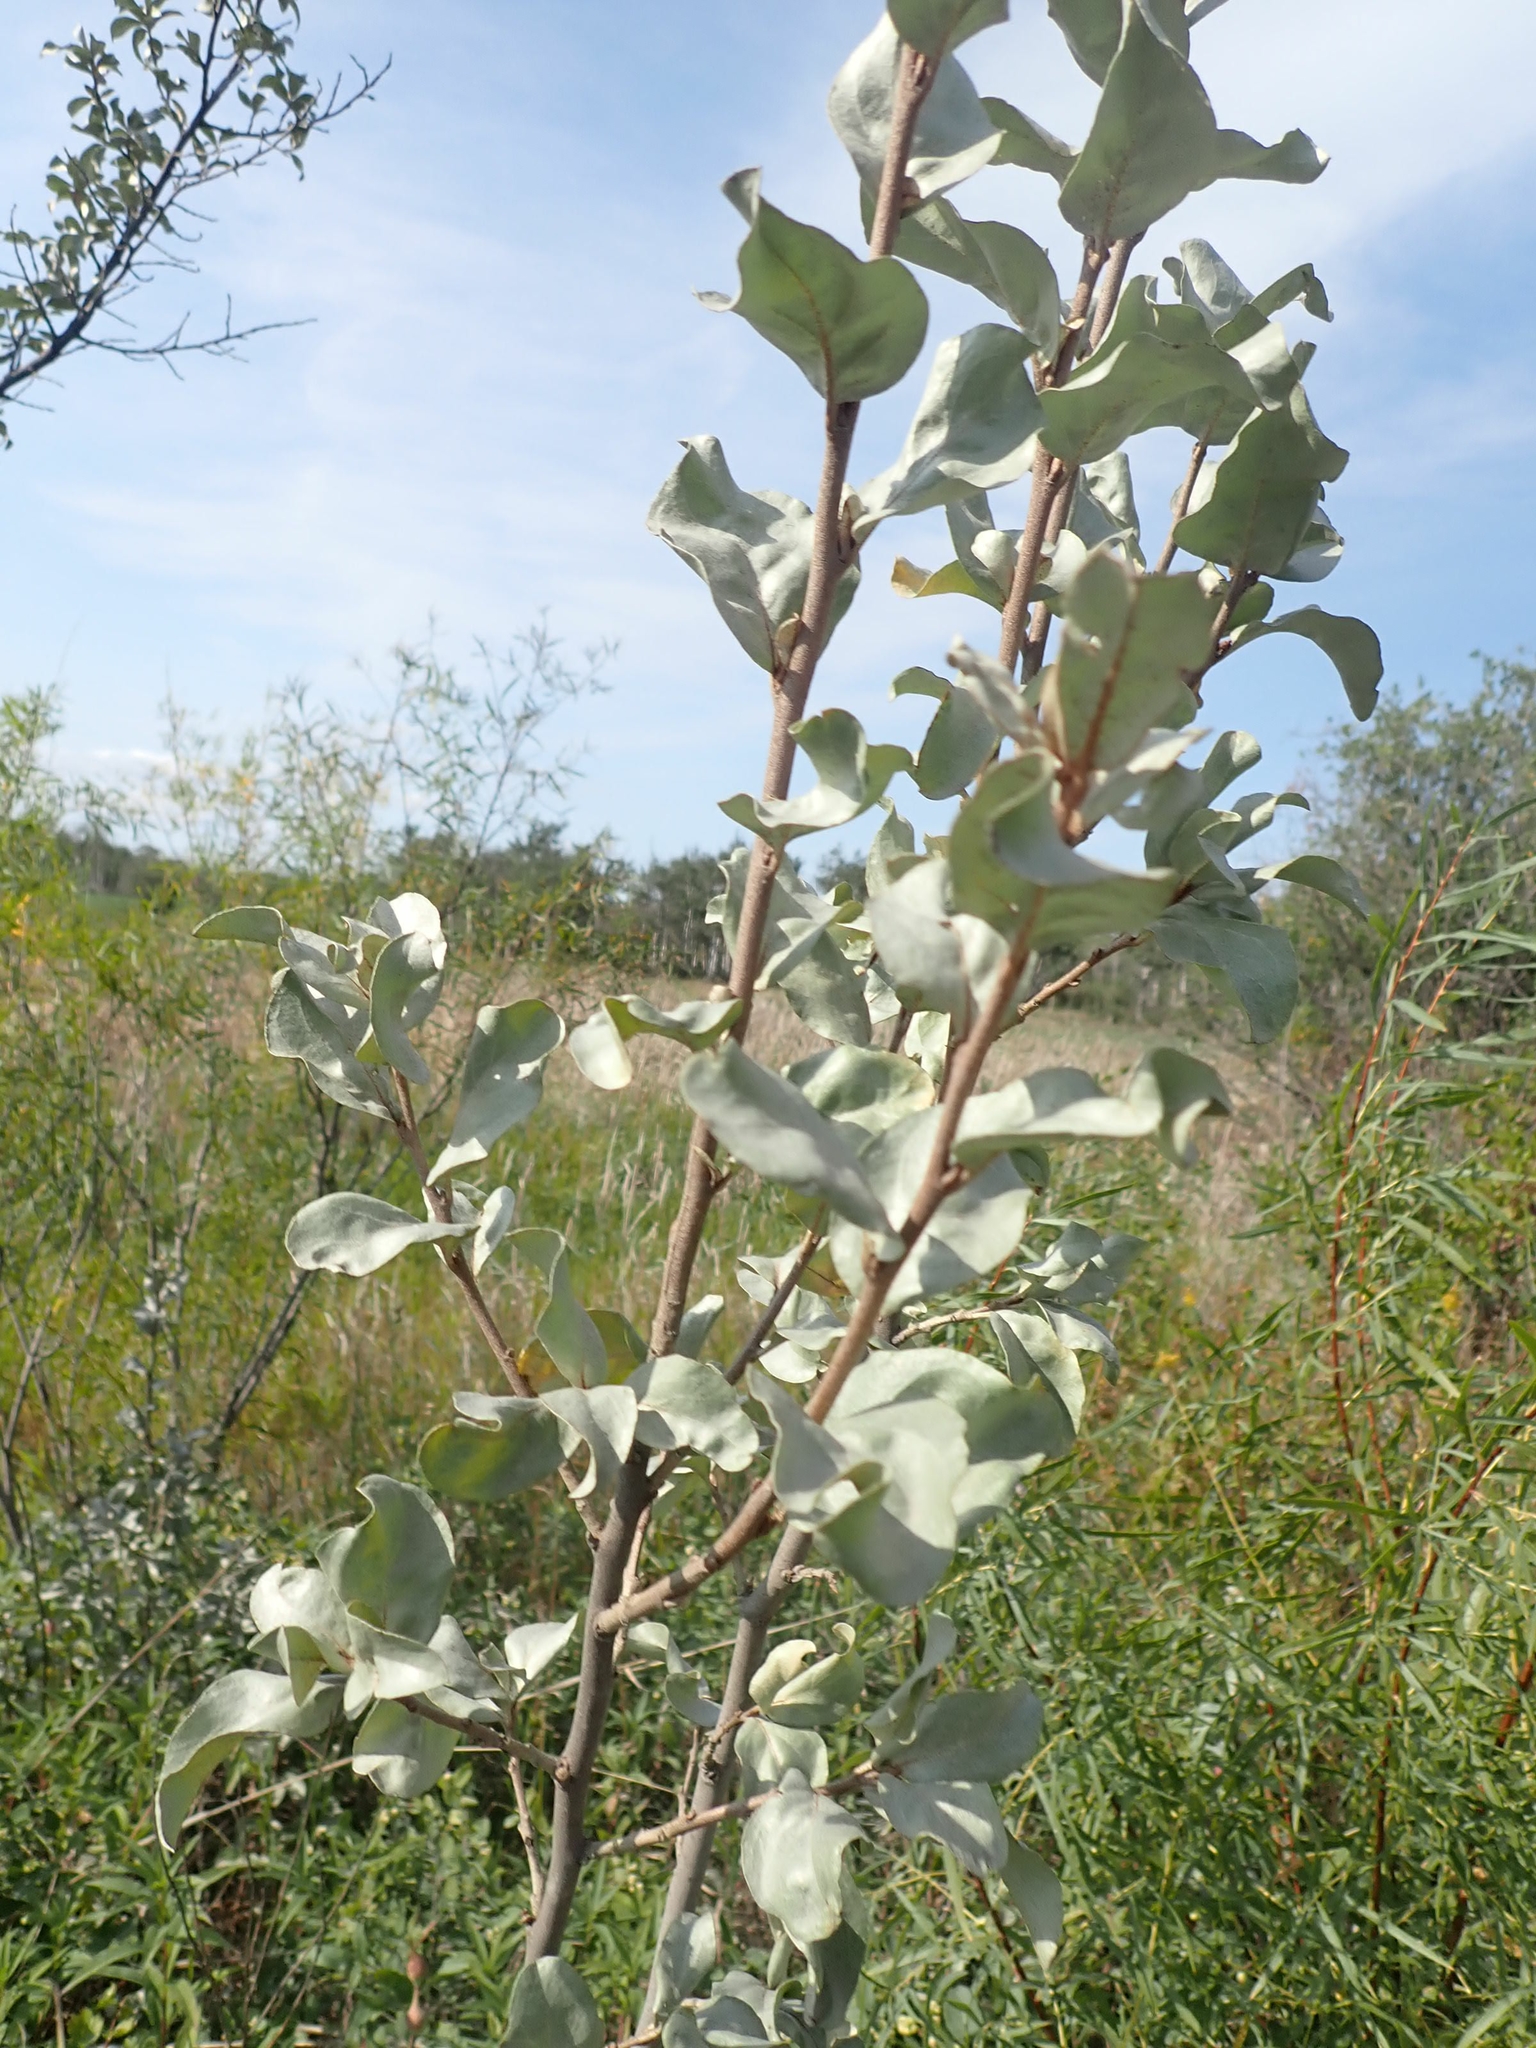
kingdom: Plantae
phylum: Tracheophyta
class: Magnoliopsida
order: Rosales
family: Elaeagnaceae
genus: Elaeagnus
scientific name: Elaeagnus commutata
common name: Silverberry
